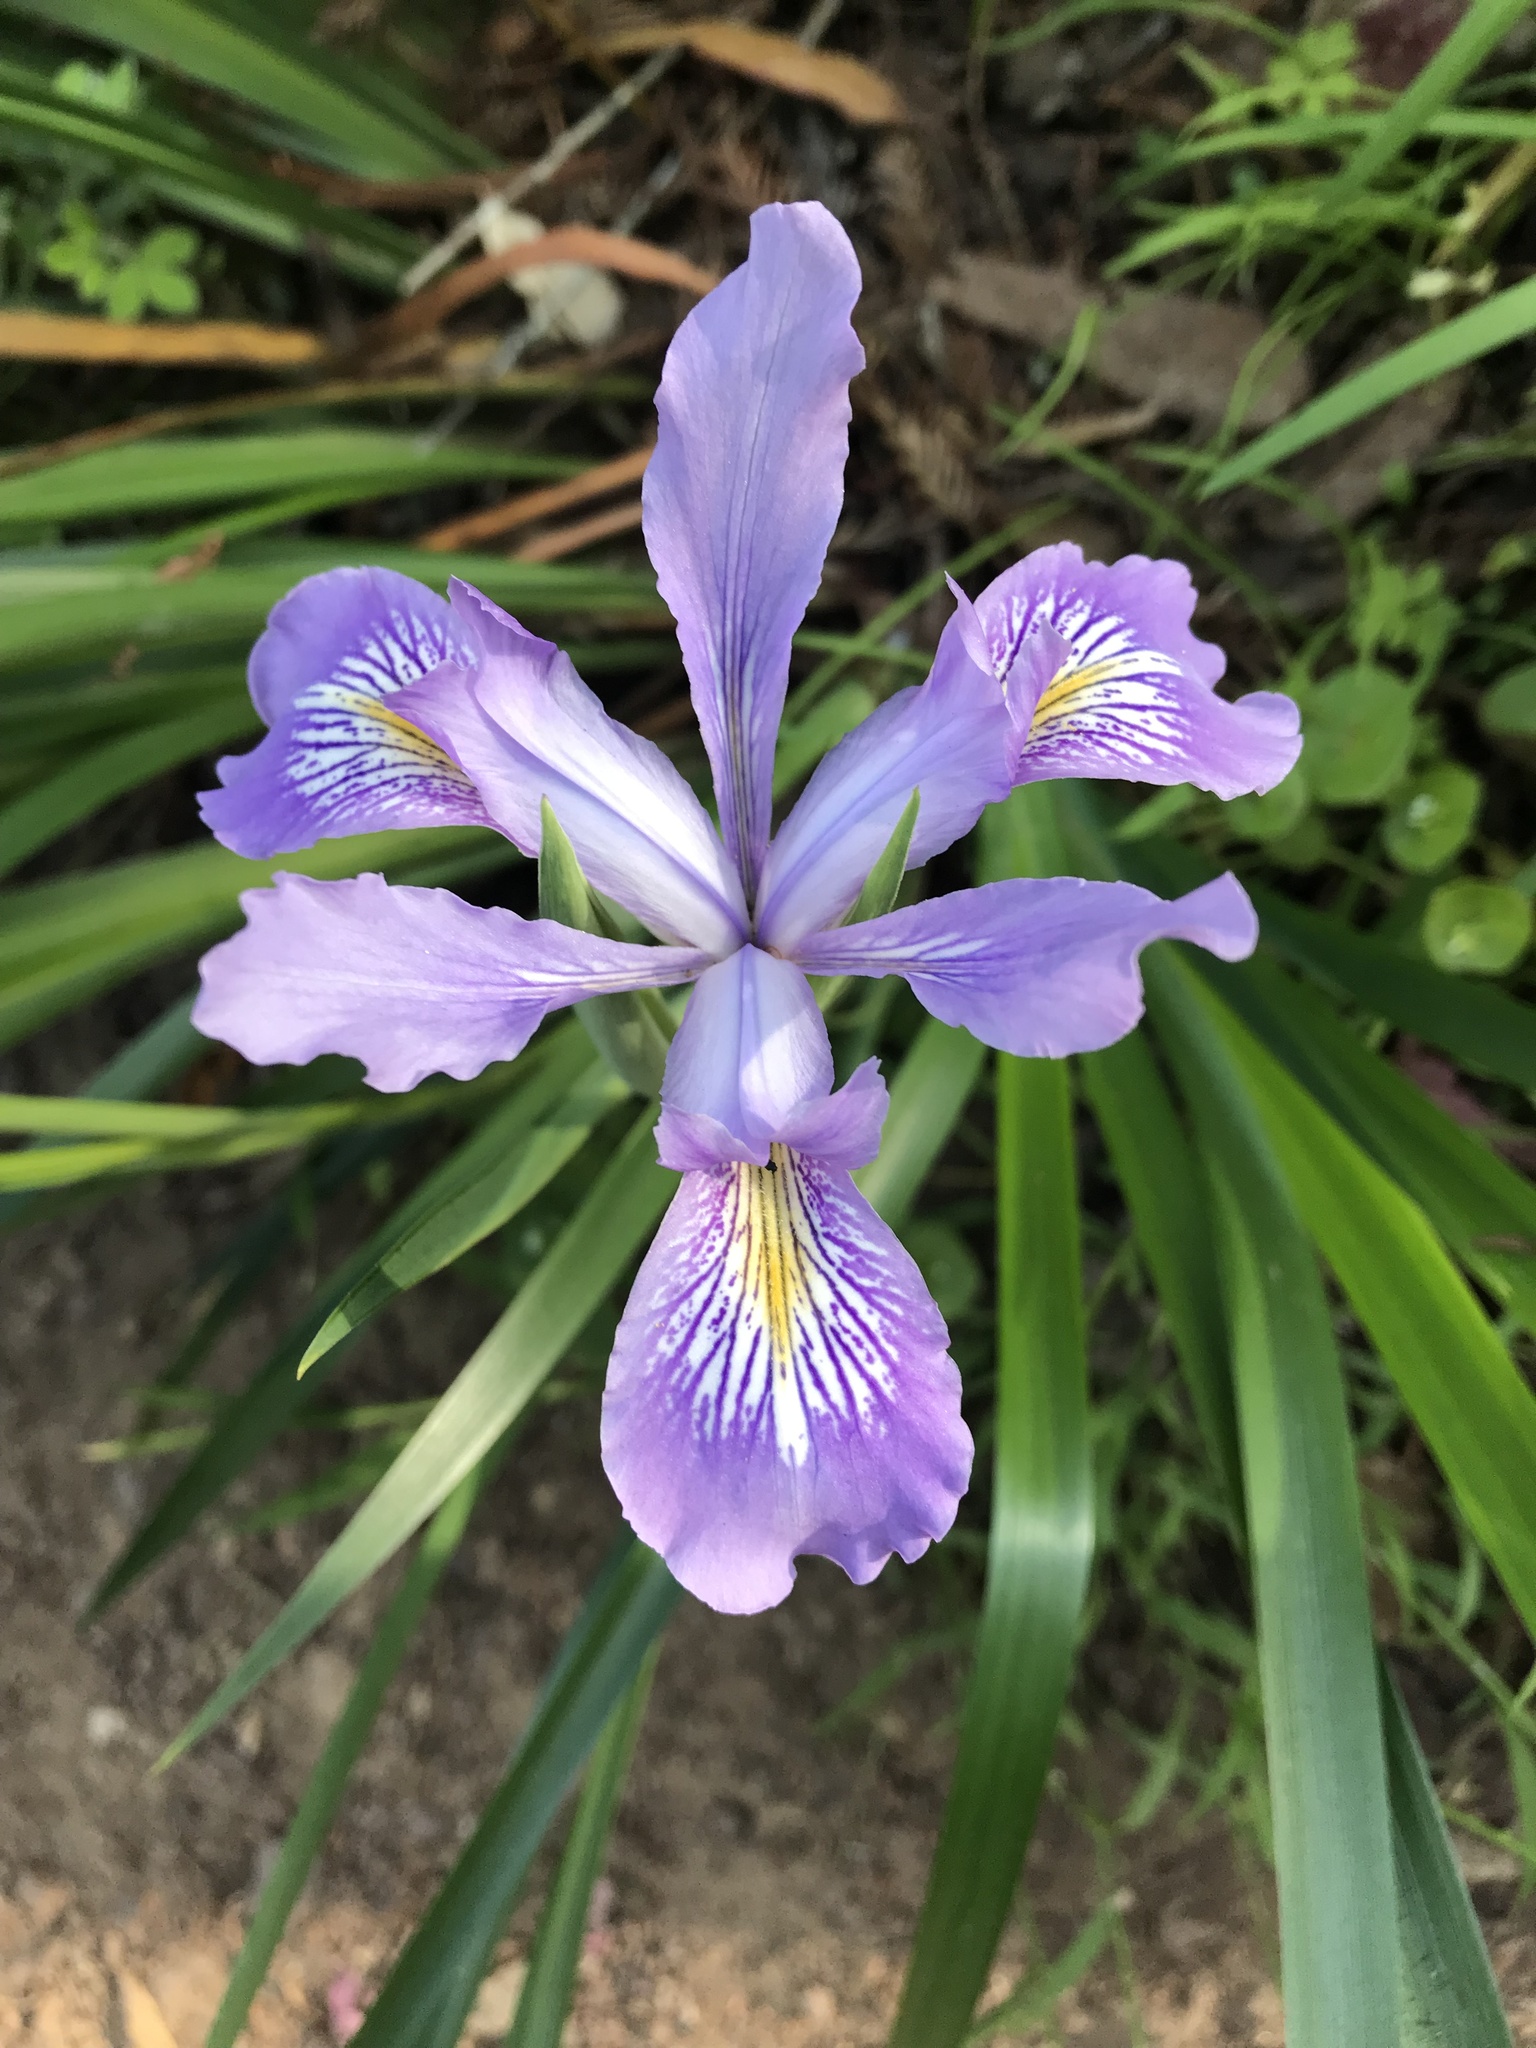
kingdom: Plantae
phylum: Tracheophyta
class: Liliopsida
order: Asparagales
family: Iridaceae
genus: Iris
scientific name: Iris douglasiana
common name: Marin iris
